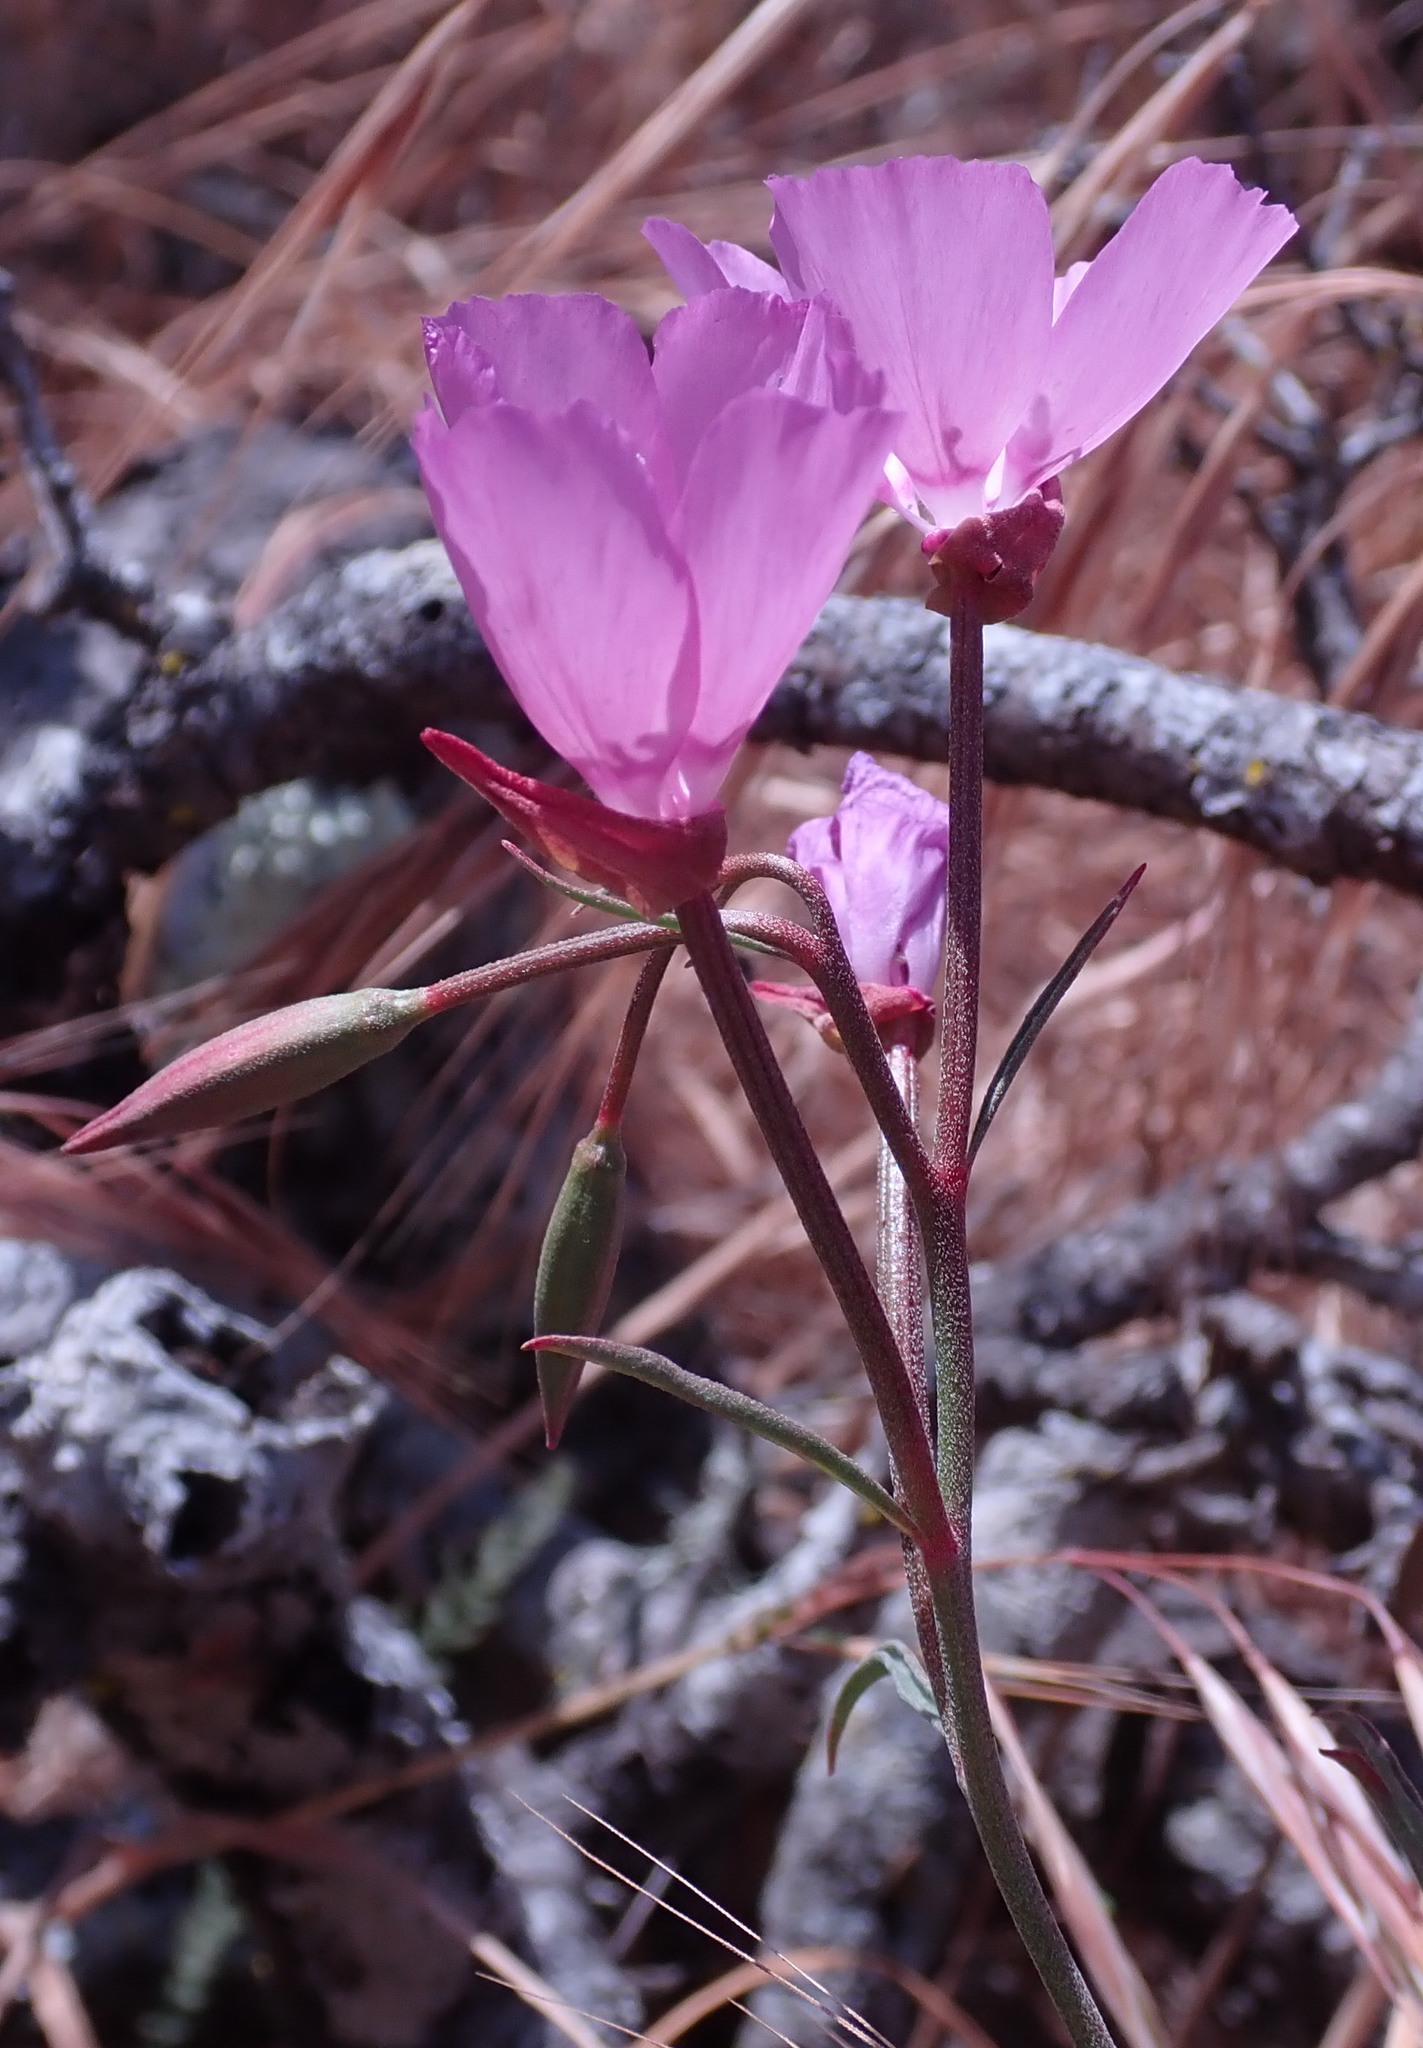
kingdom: Plantae
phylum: Tracheophyta
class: Magnoliopsida
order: Myrtales
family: Onagraceae
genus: Clarkia
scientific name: Clarkia lewisii
